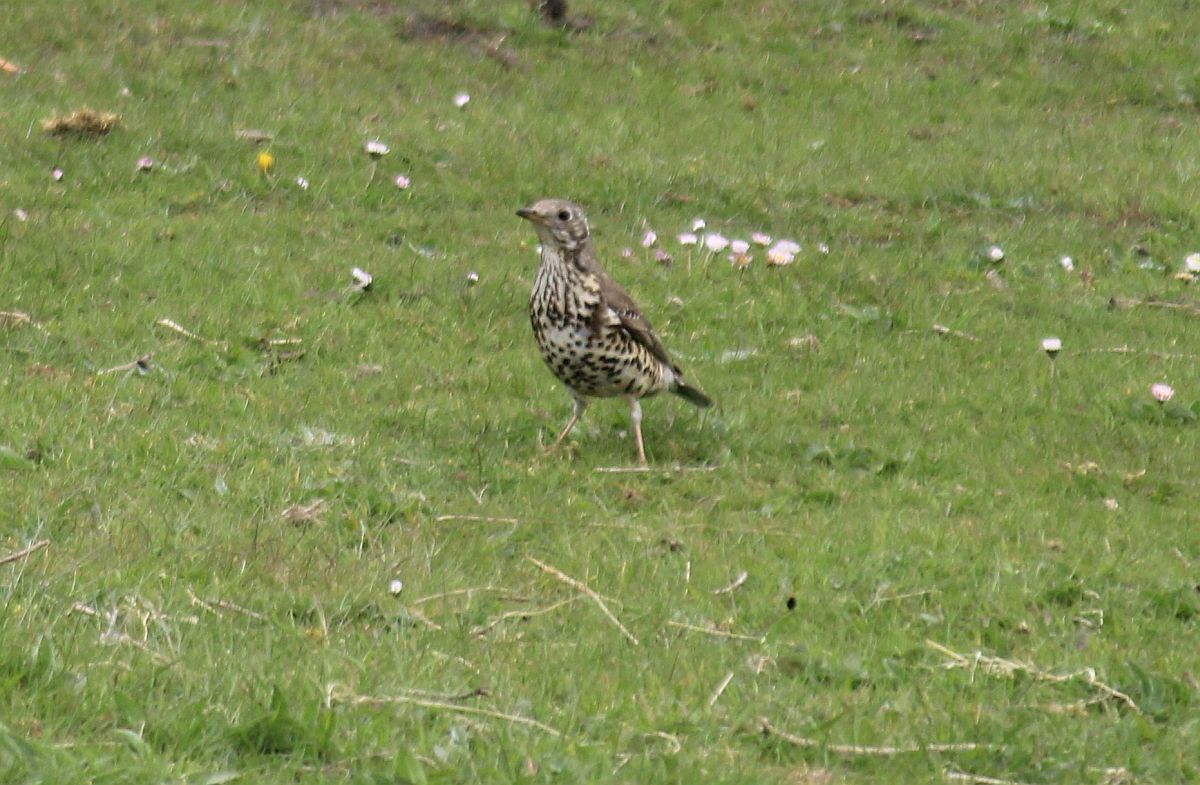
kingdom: Animalia
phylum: Chordata
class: Aves
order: Passeriformes
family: Turdidae
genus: Turdus
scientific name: Turdus viscivorus
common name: Mistle thrush
